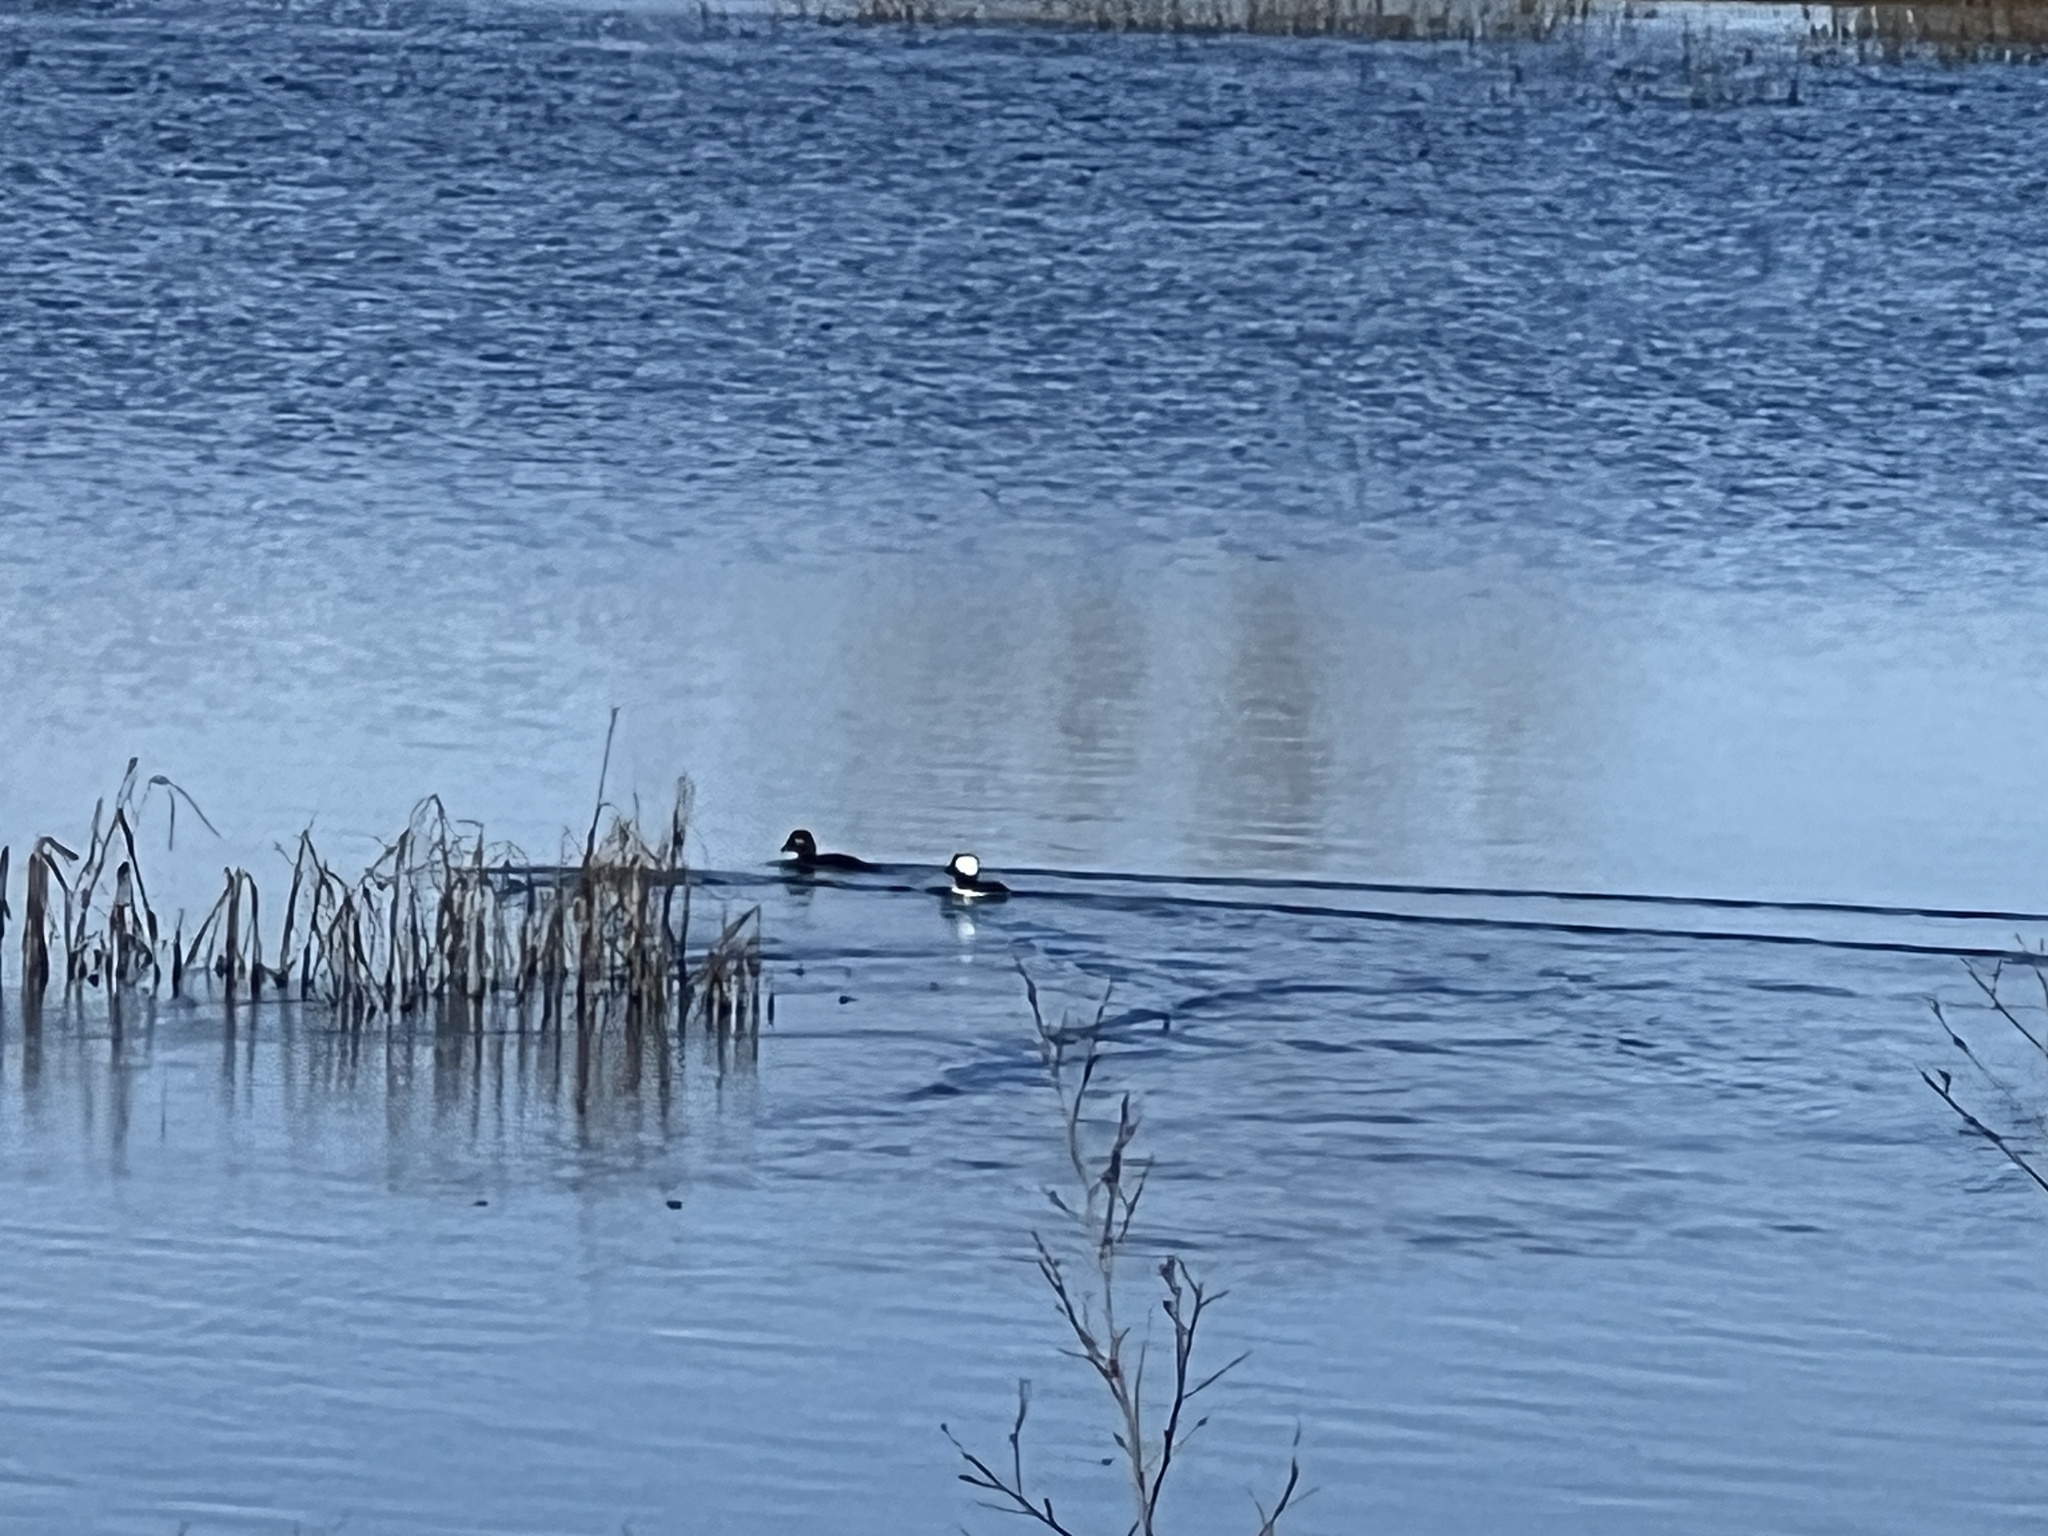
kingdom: Animalia
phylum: Chordata
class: Aves
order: Anseriformes
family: Anatidae
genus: Bucephala
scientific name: Bucephala albeola
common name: Bufflehead
